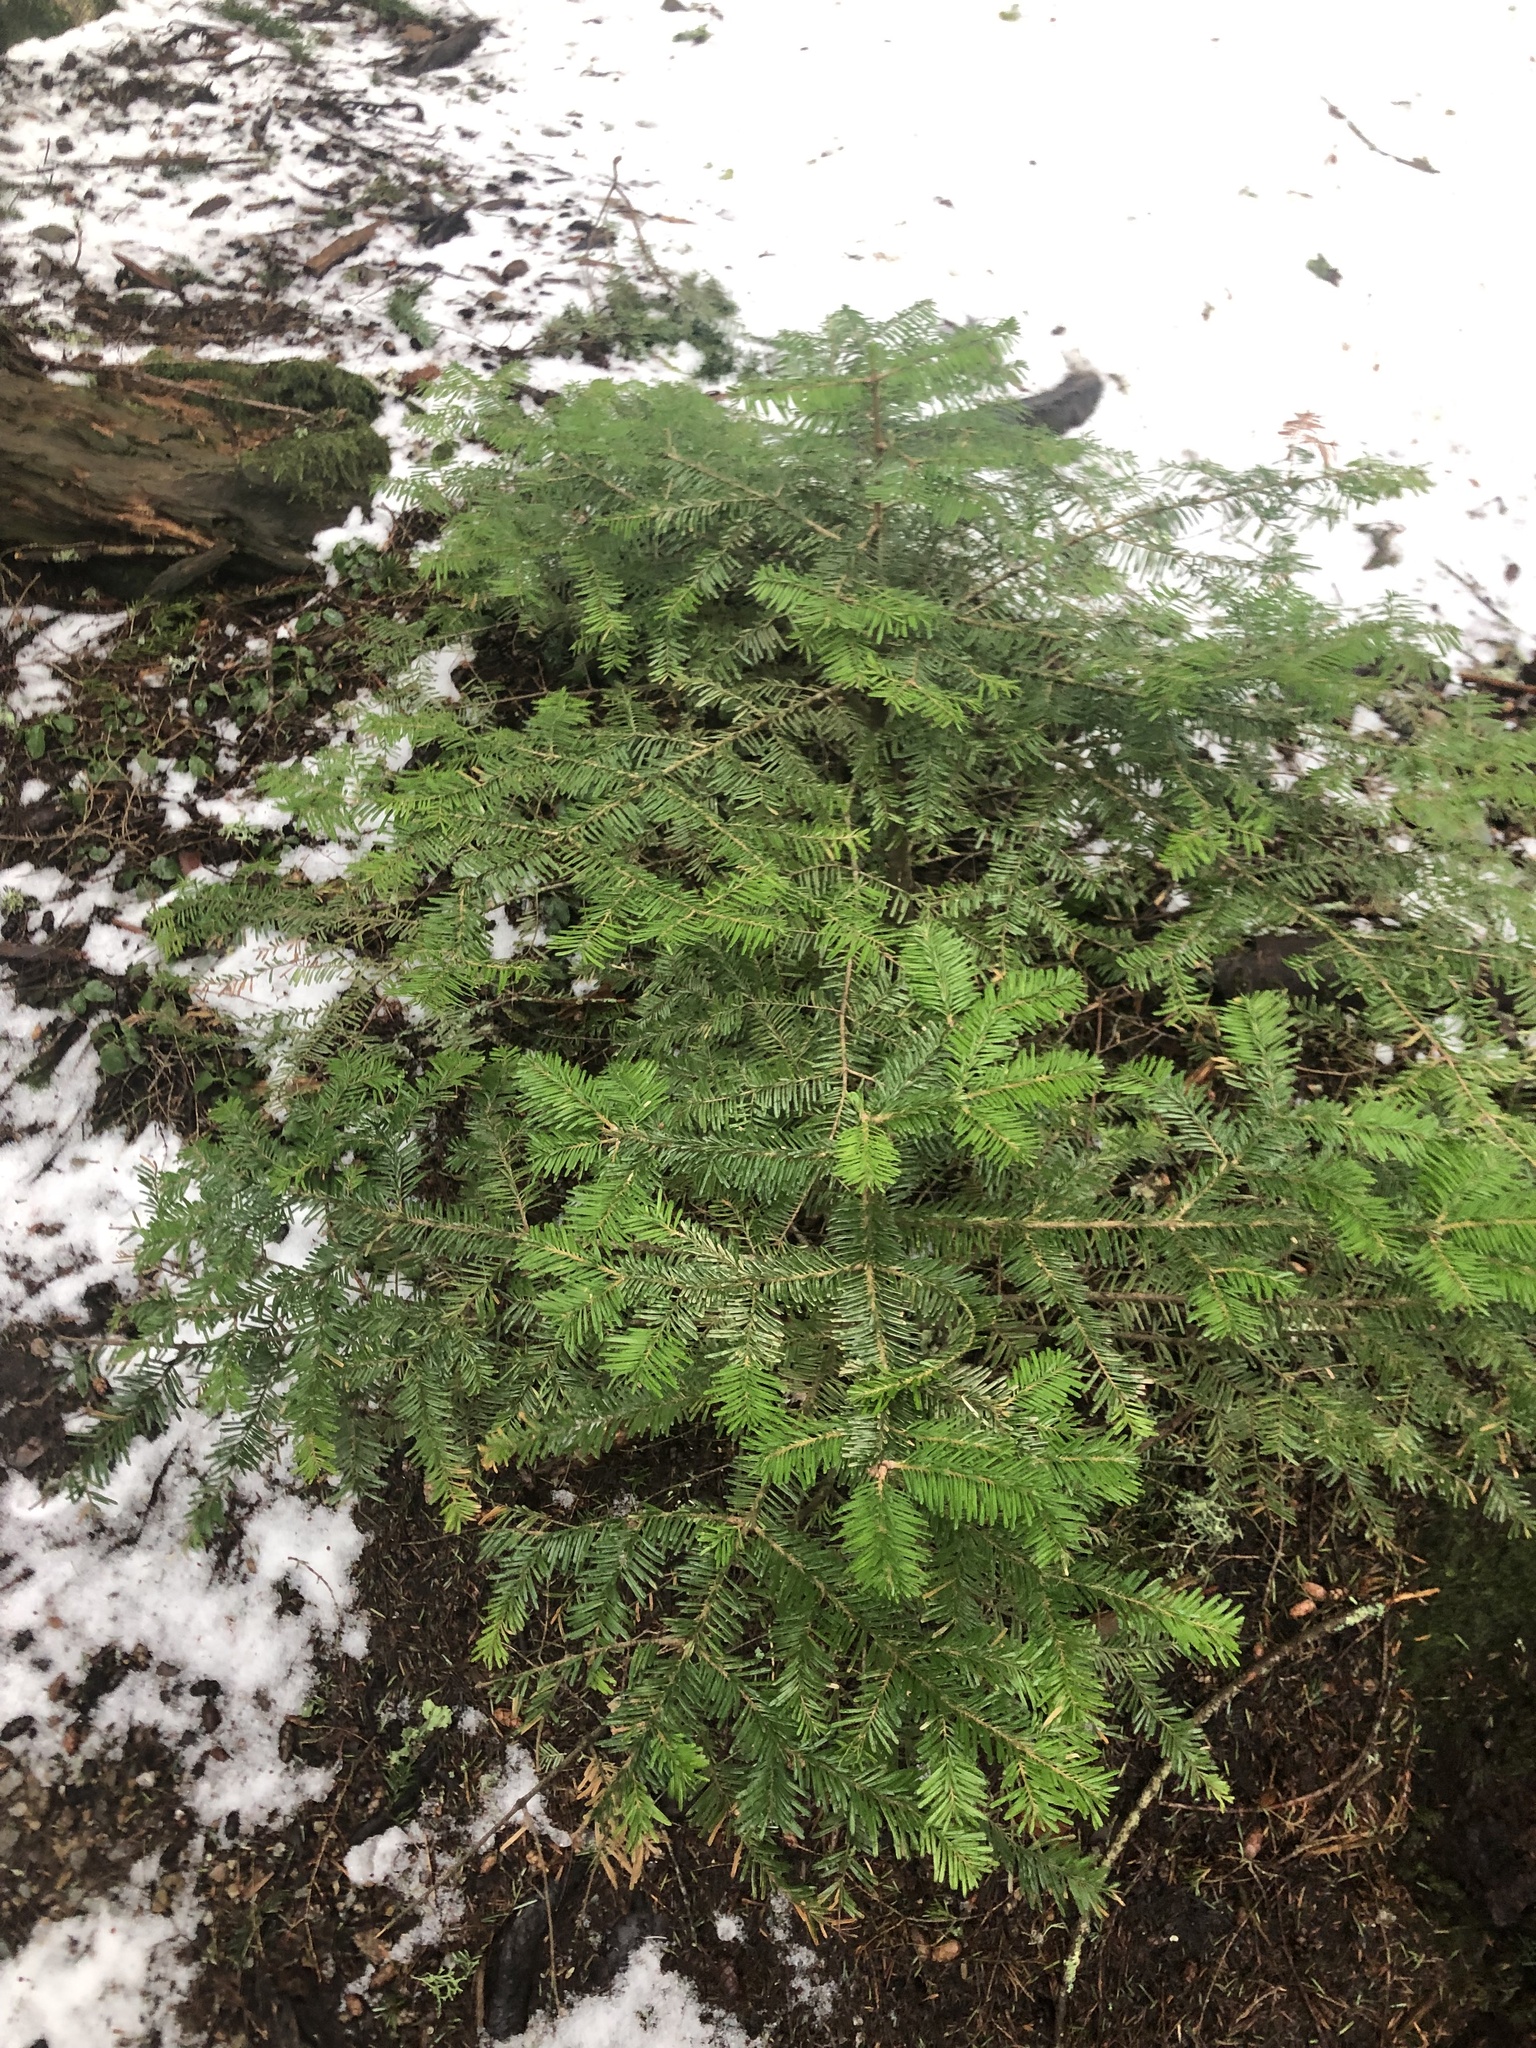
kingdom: Plantae
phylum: Tracheophyta
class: Pinopsida
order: Pinales
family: Pinaceae
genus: Abies
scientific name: Abies amabilis
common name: Pacific silver fir
